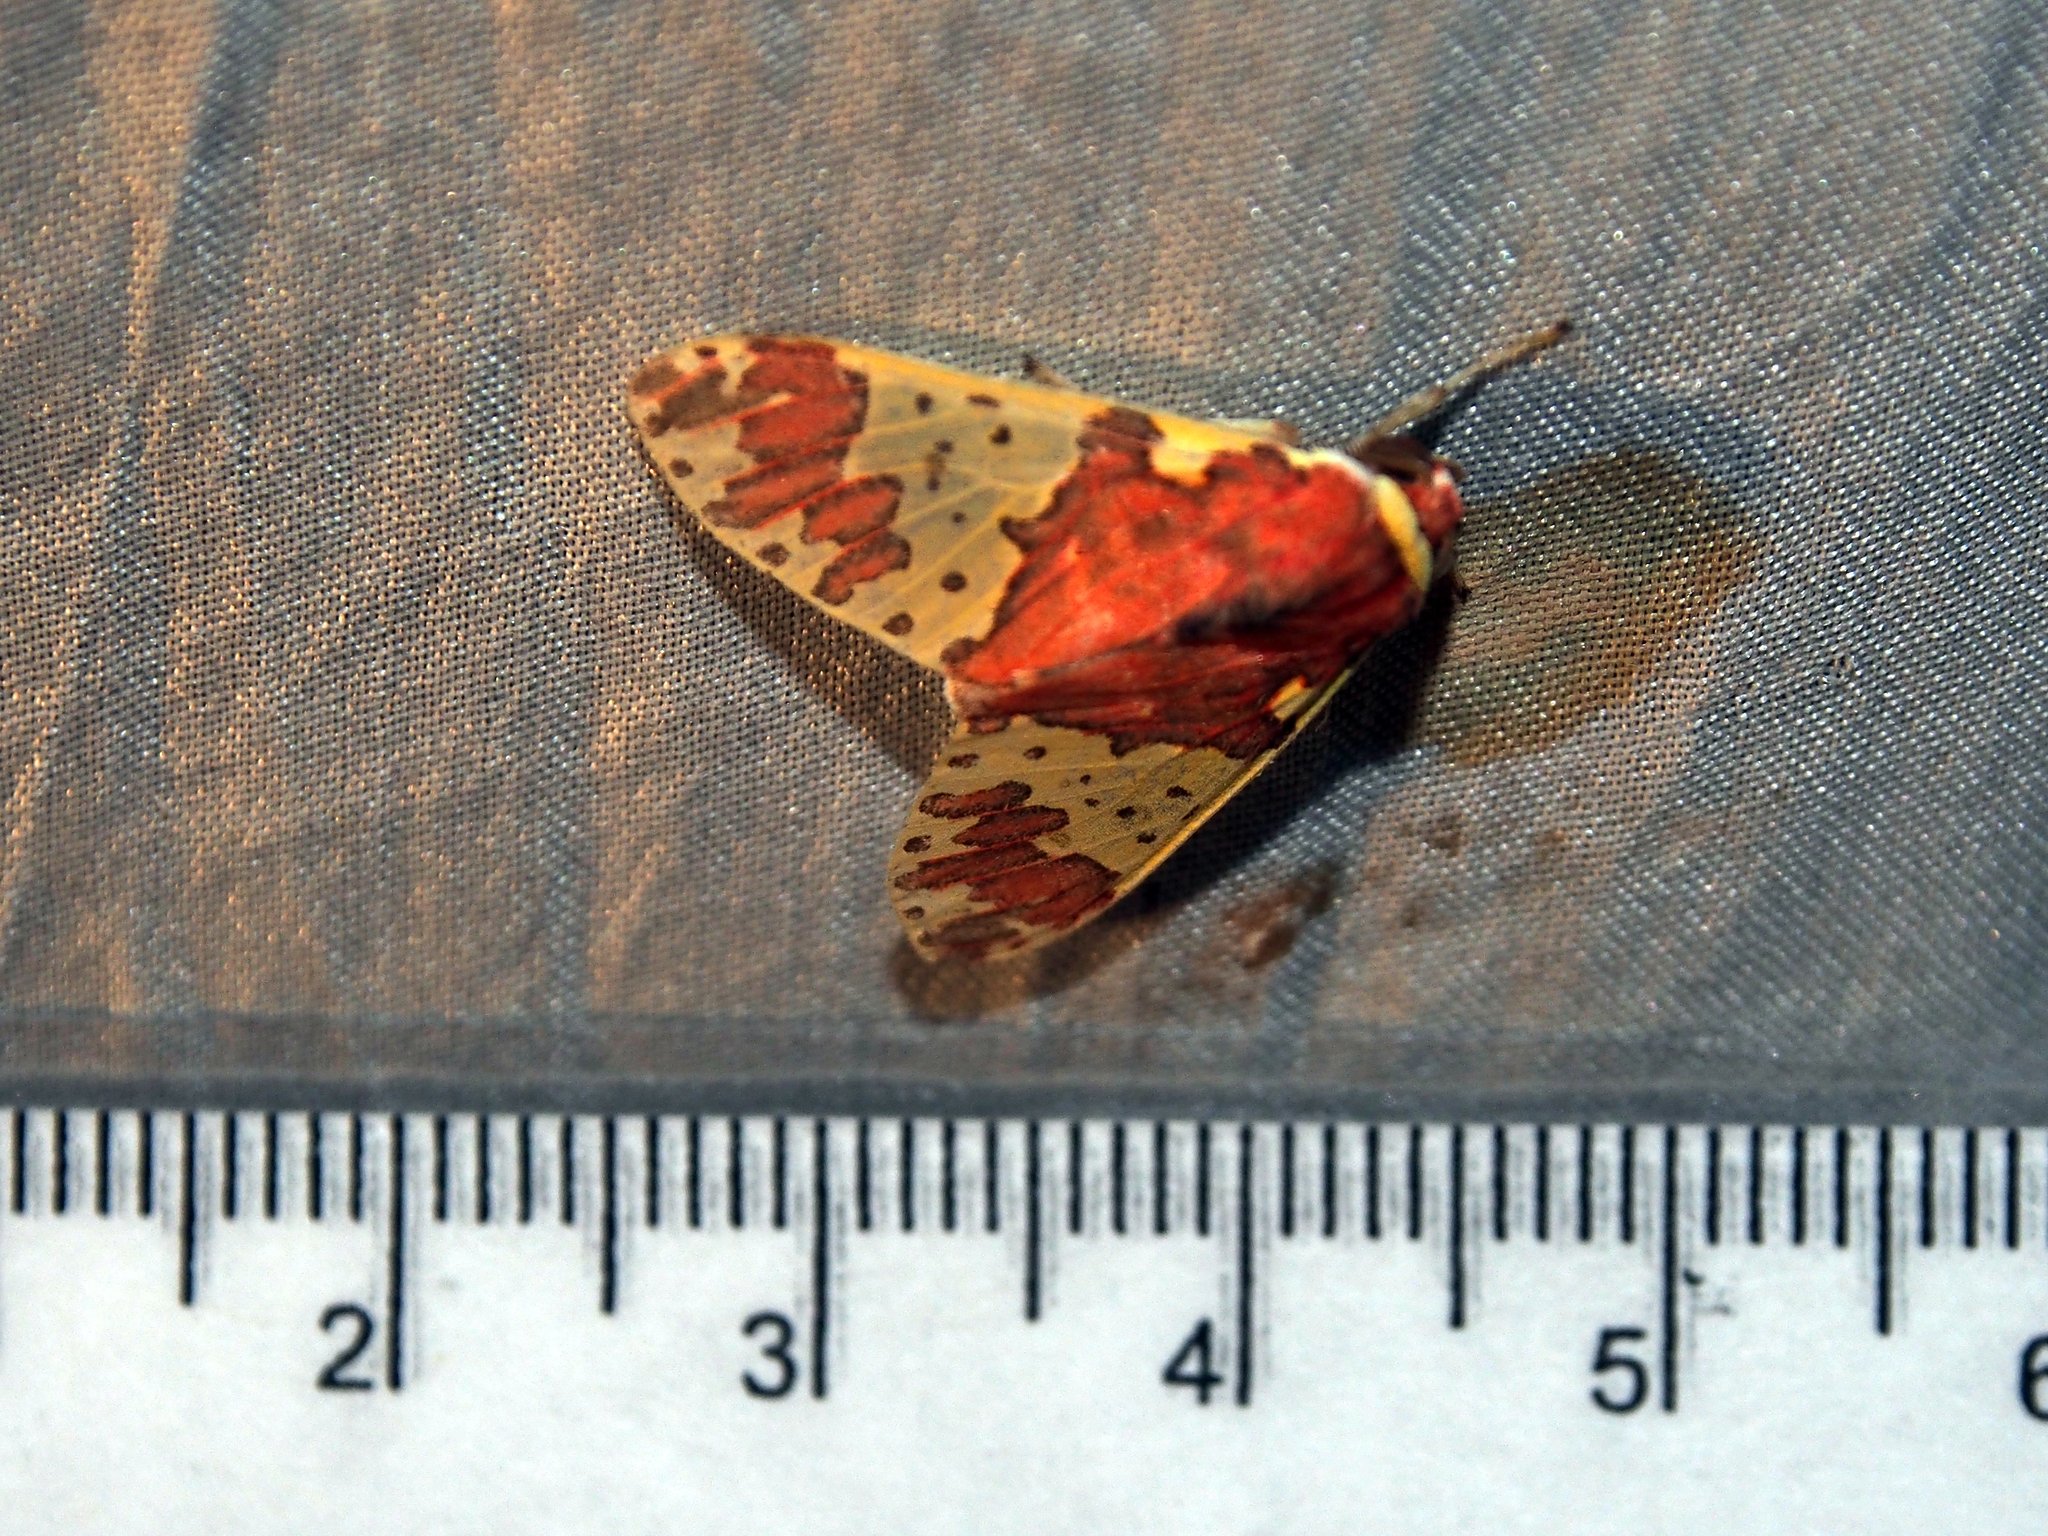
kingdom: Animalia
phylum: Arthropoda
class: Insecta
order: Lepidoptera
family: Erebidae
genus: Amaxia
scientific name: Amaxia carinosa
